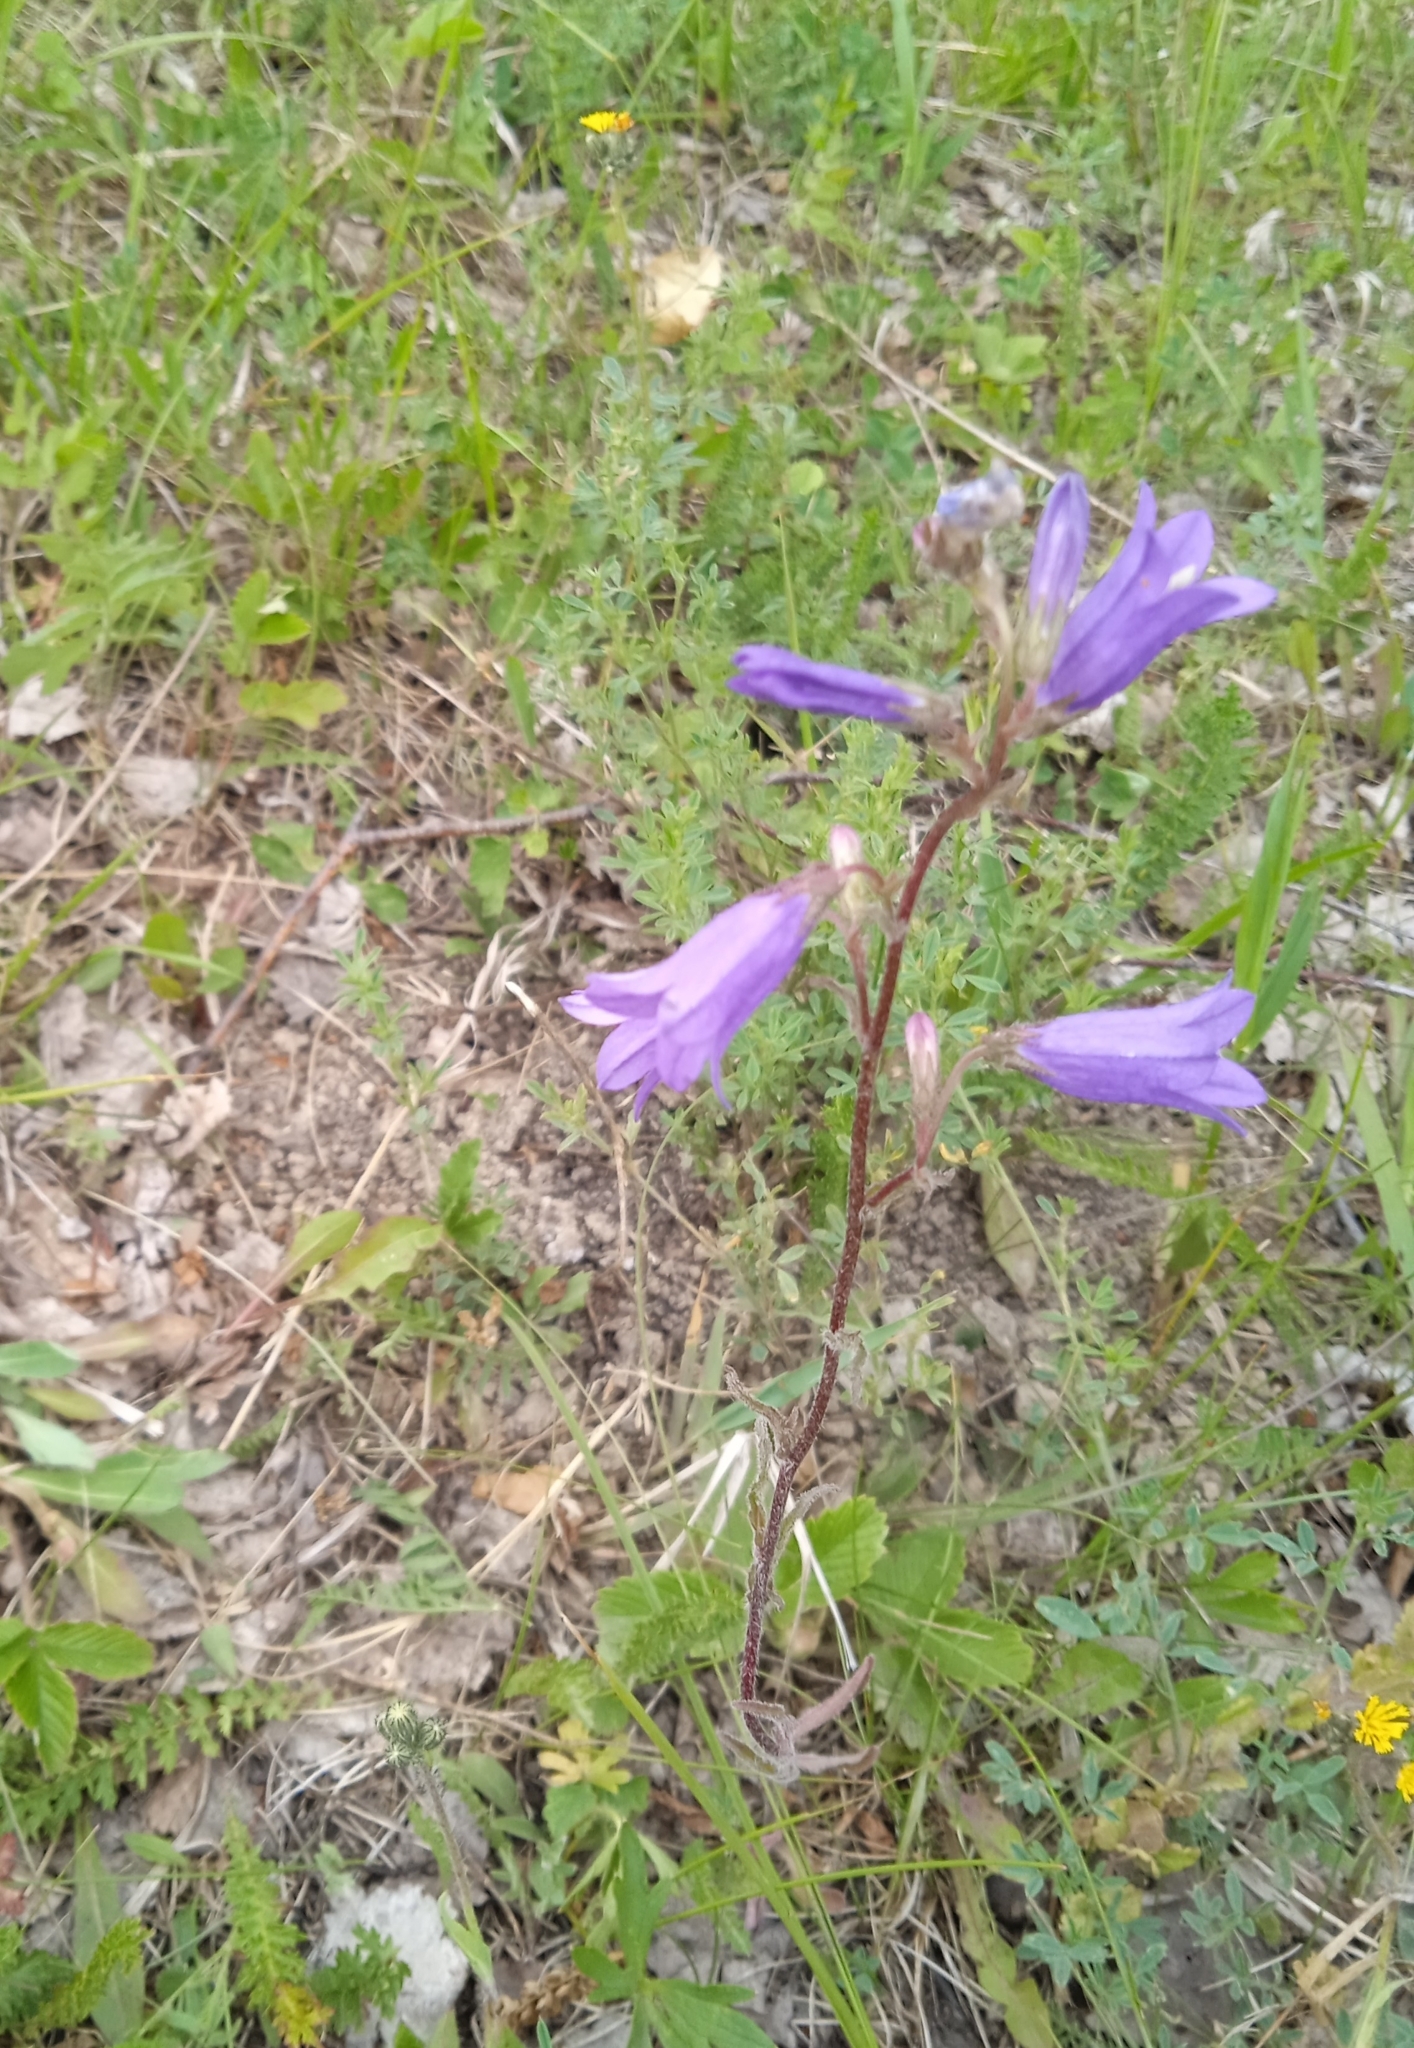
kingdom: Plantae
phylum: Tracheophyta
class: Magnoliopsida
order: Asterales
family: Campanulaceae
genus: Campanula
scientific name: Campanula sibirica
